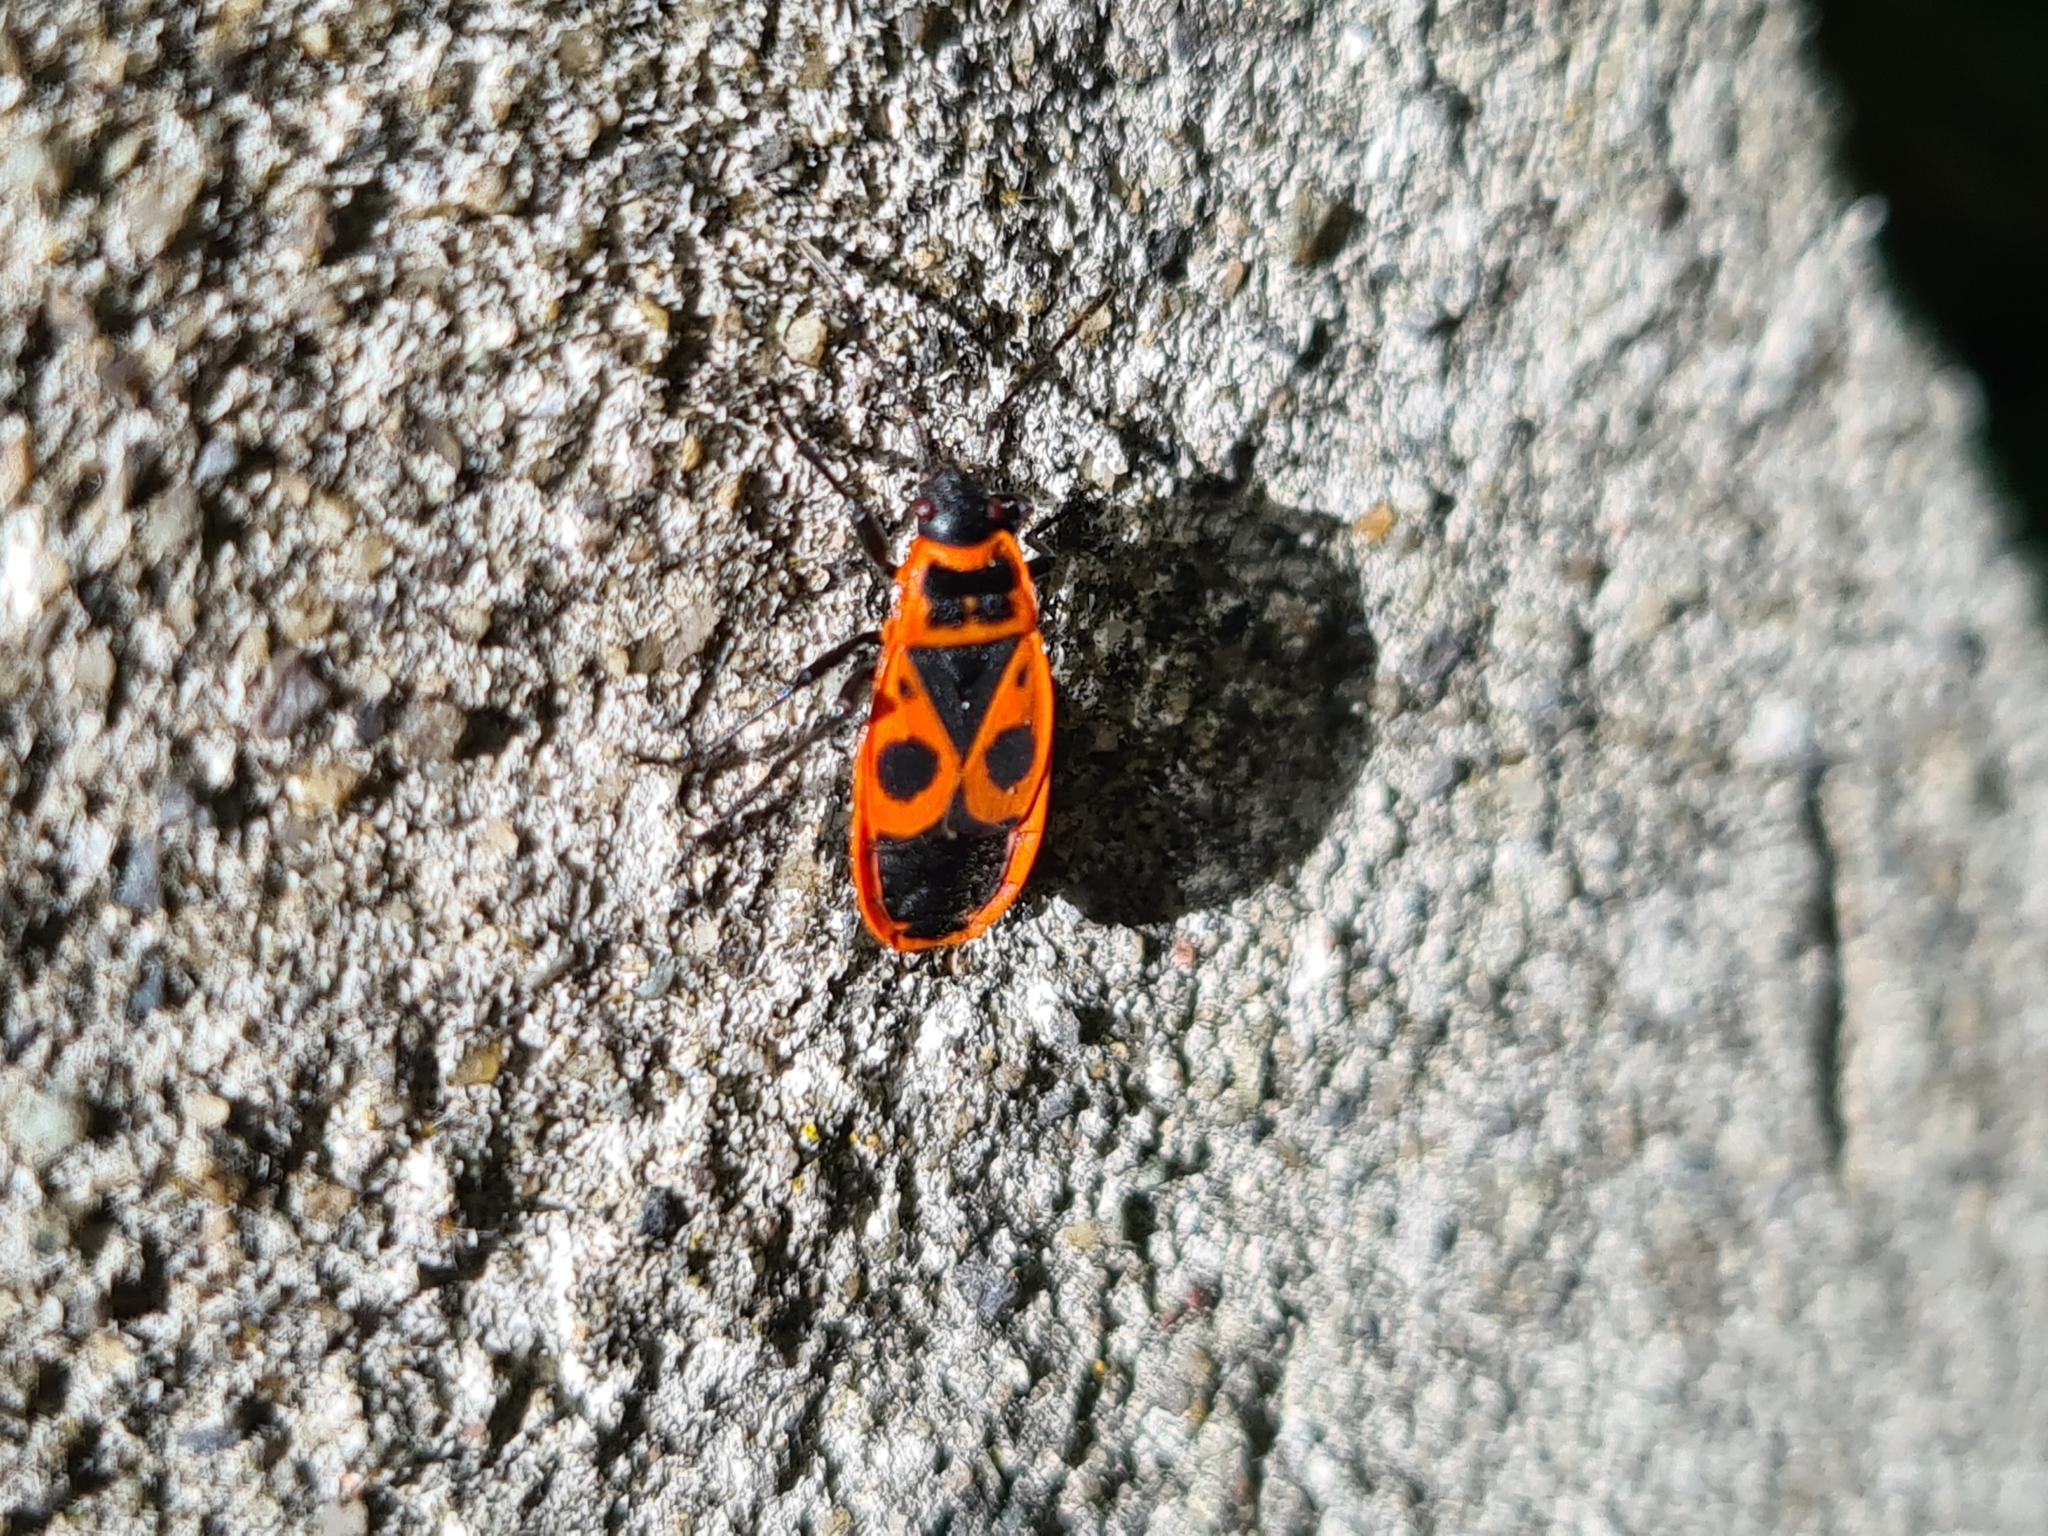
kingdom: Animalia
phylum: Arthropoda
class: Insecta
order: Hemiptera
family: Pyrrhocoridae
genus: Pyrrhocoris
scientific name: Pyrrhocoris apterus
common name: Firebug
